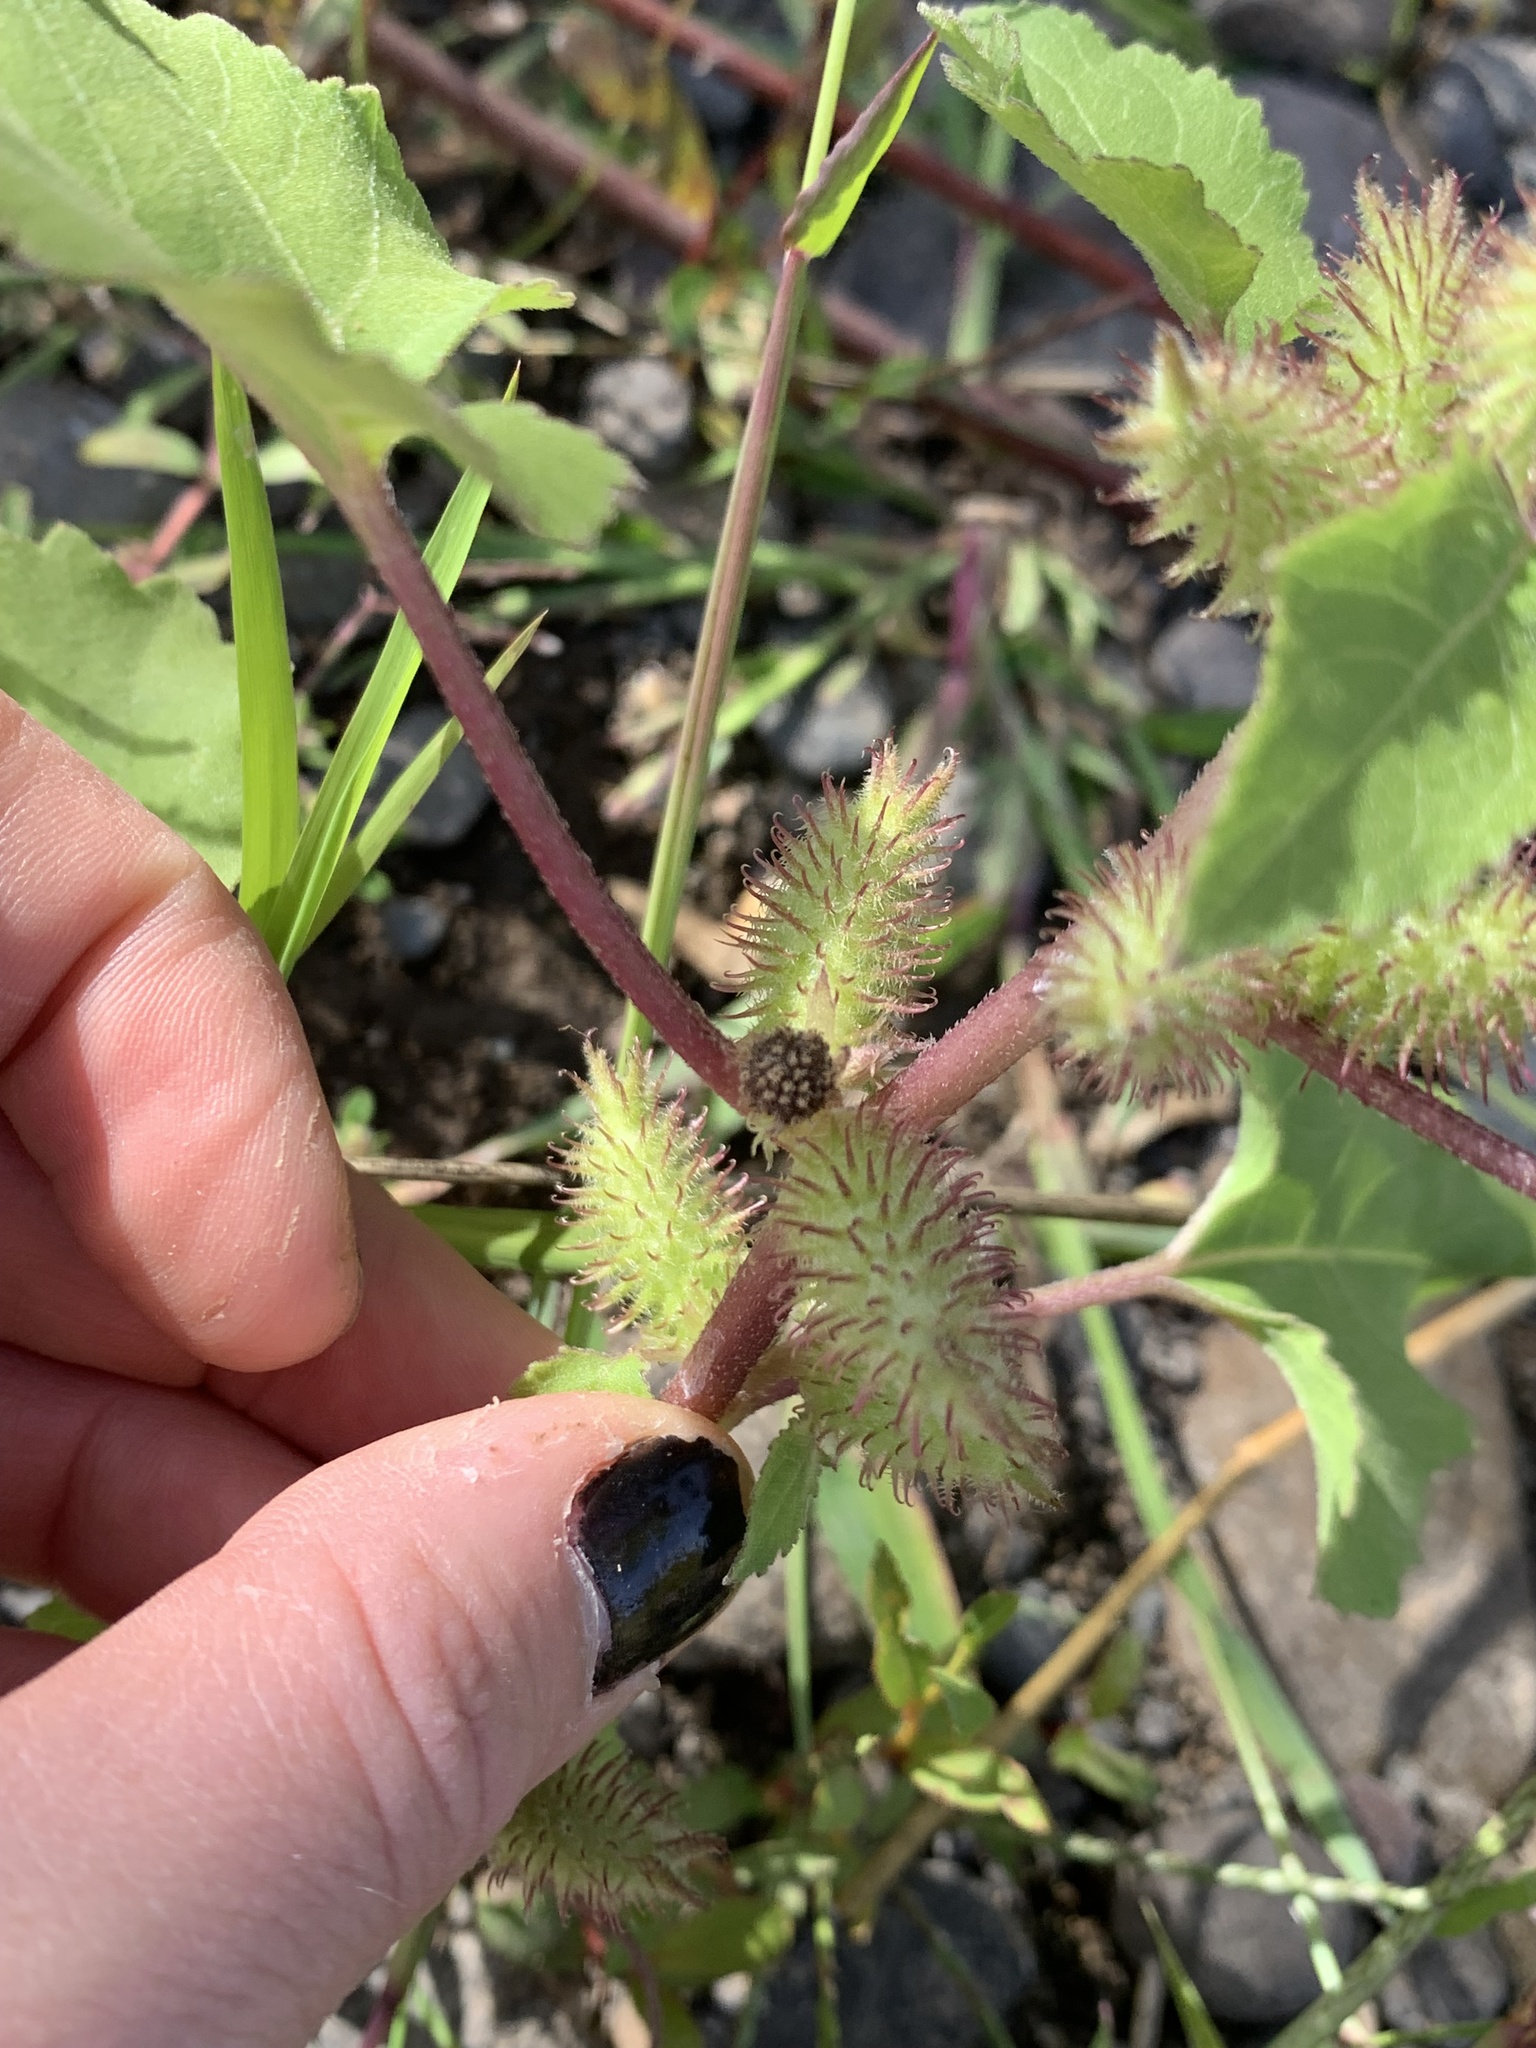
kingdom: Plantae
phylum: Tracheophyta
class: Magnoliopsida
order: Asterales
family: Asteraceae
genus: Xanthium
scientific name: Xanthium strumarium
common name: Rough cocklebur
